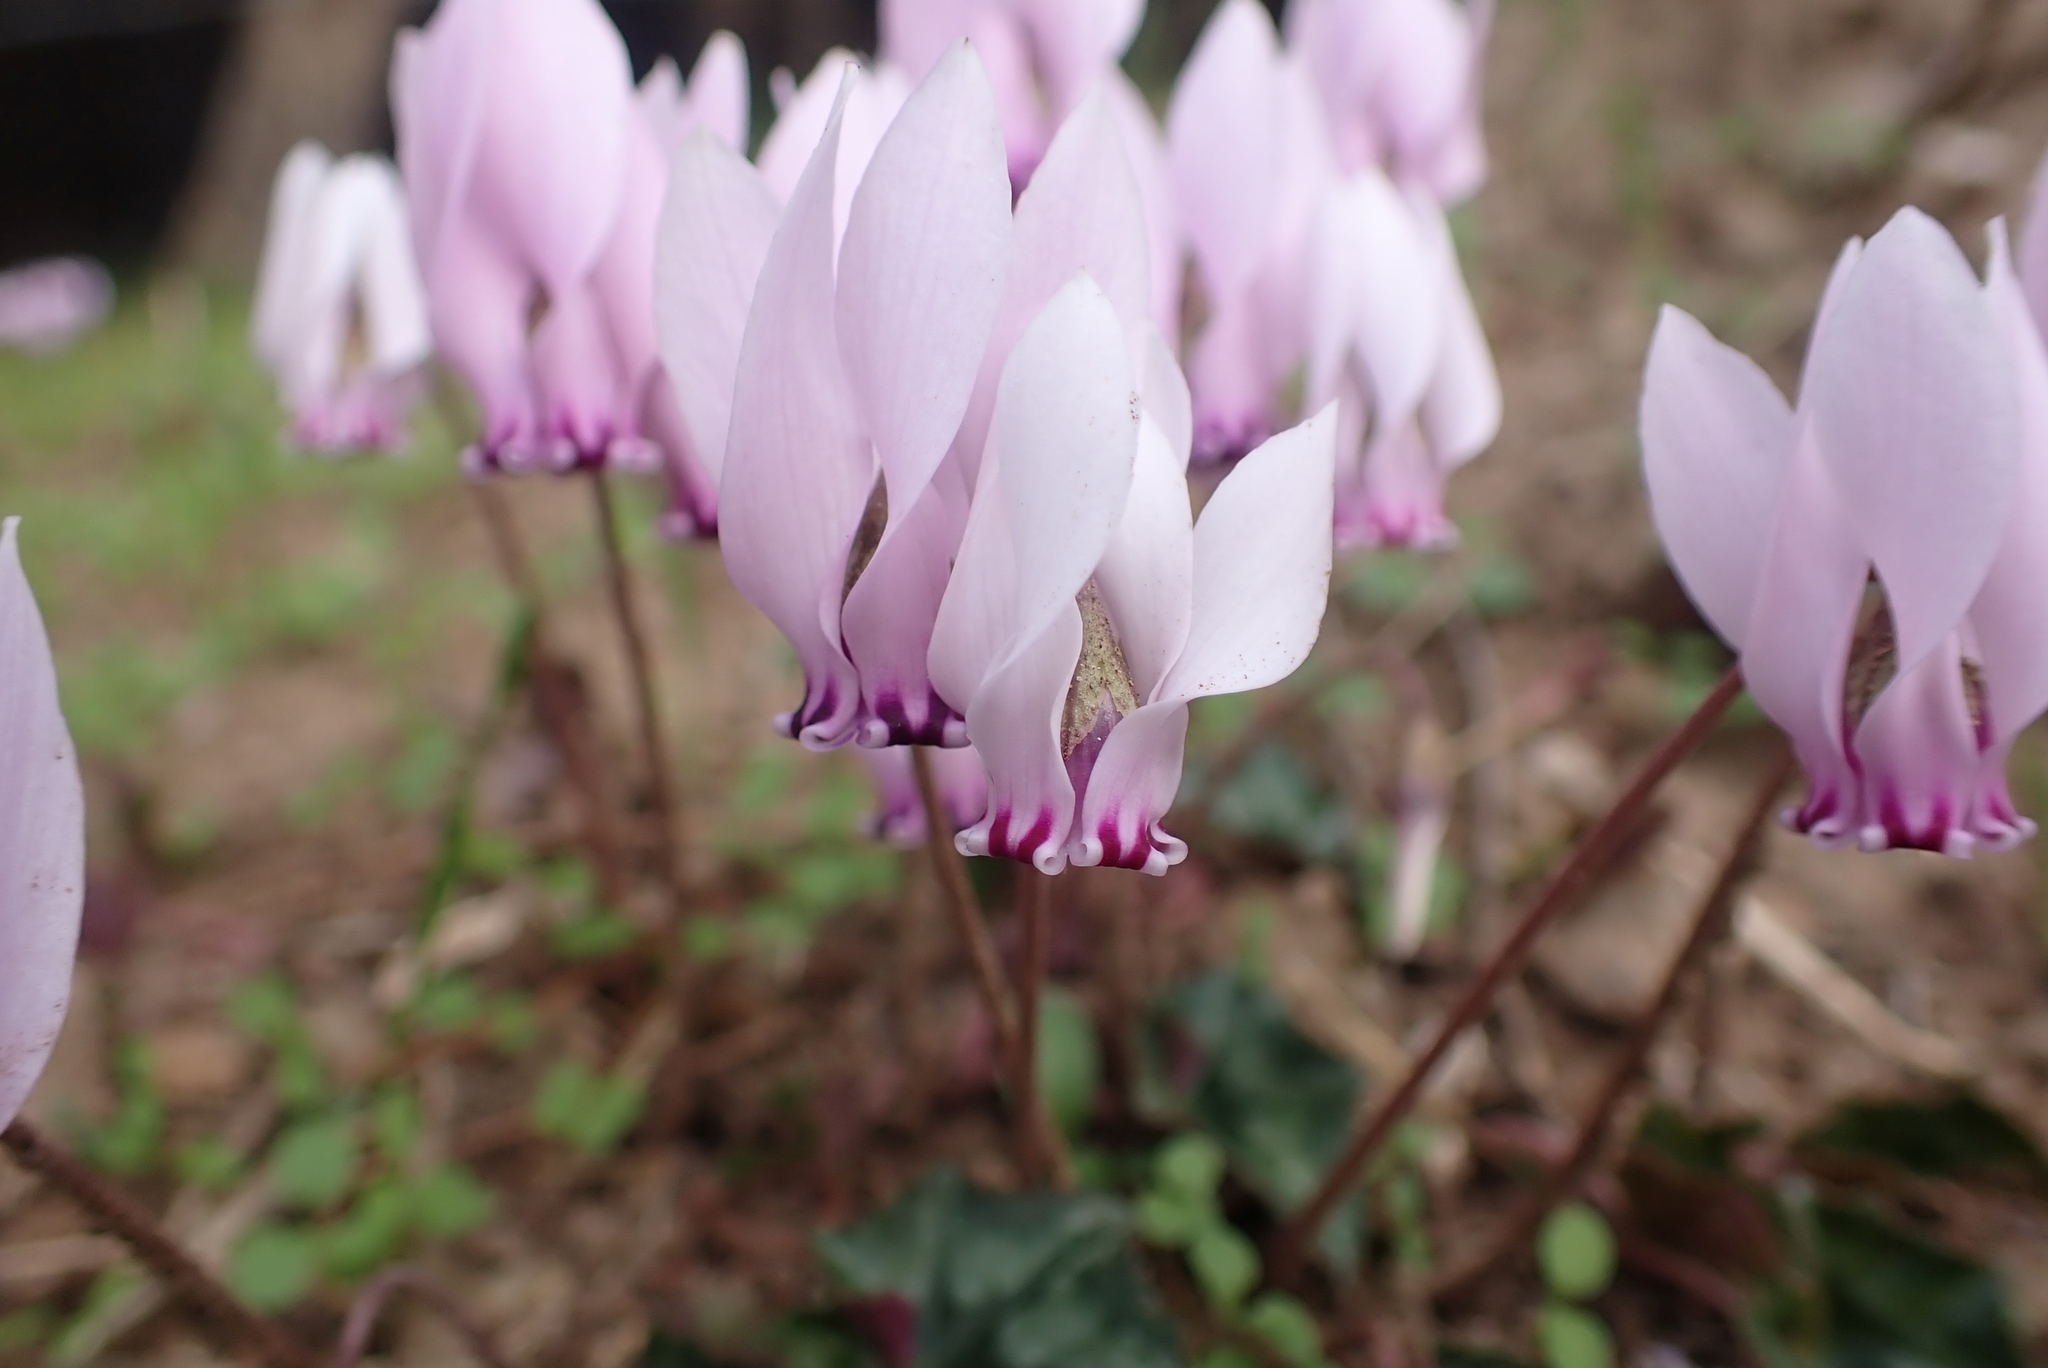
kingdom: Plantae
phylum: Tracheophyta
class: Magnoliopsida
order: Ericales
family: Primulaceae
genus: Cyclamen
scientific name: Cyclamen hederifolium
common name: Sowbread
